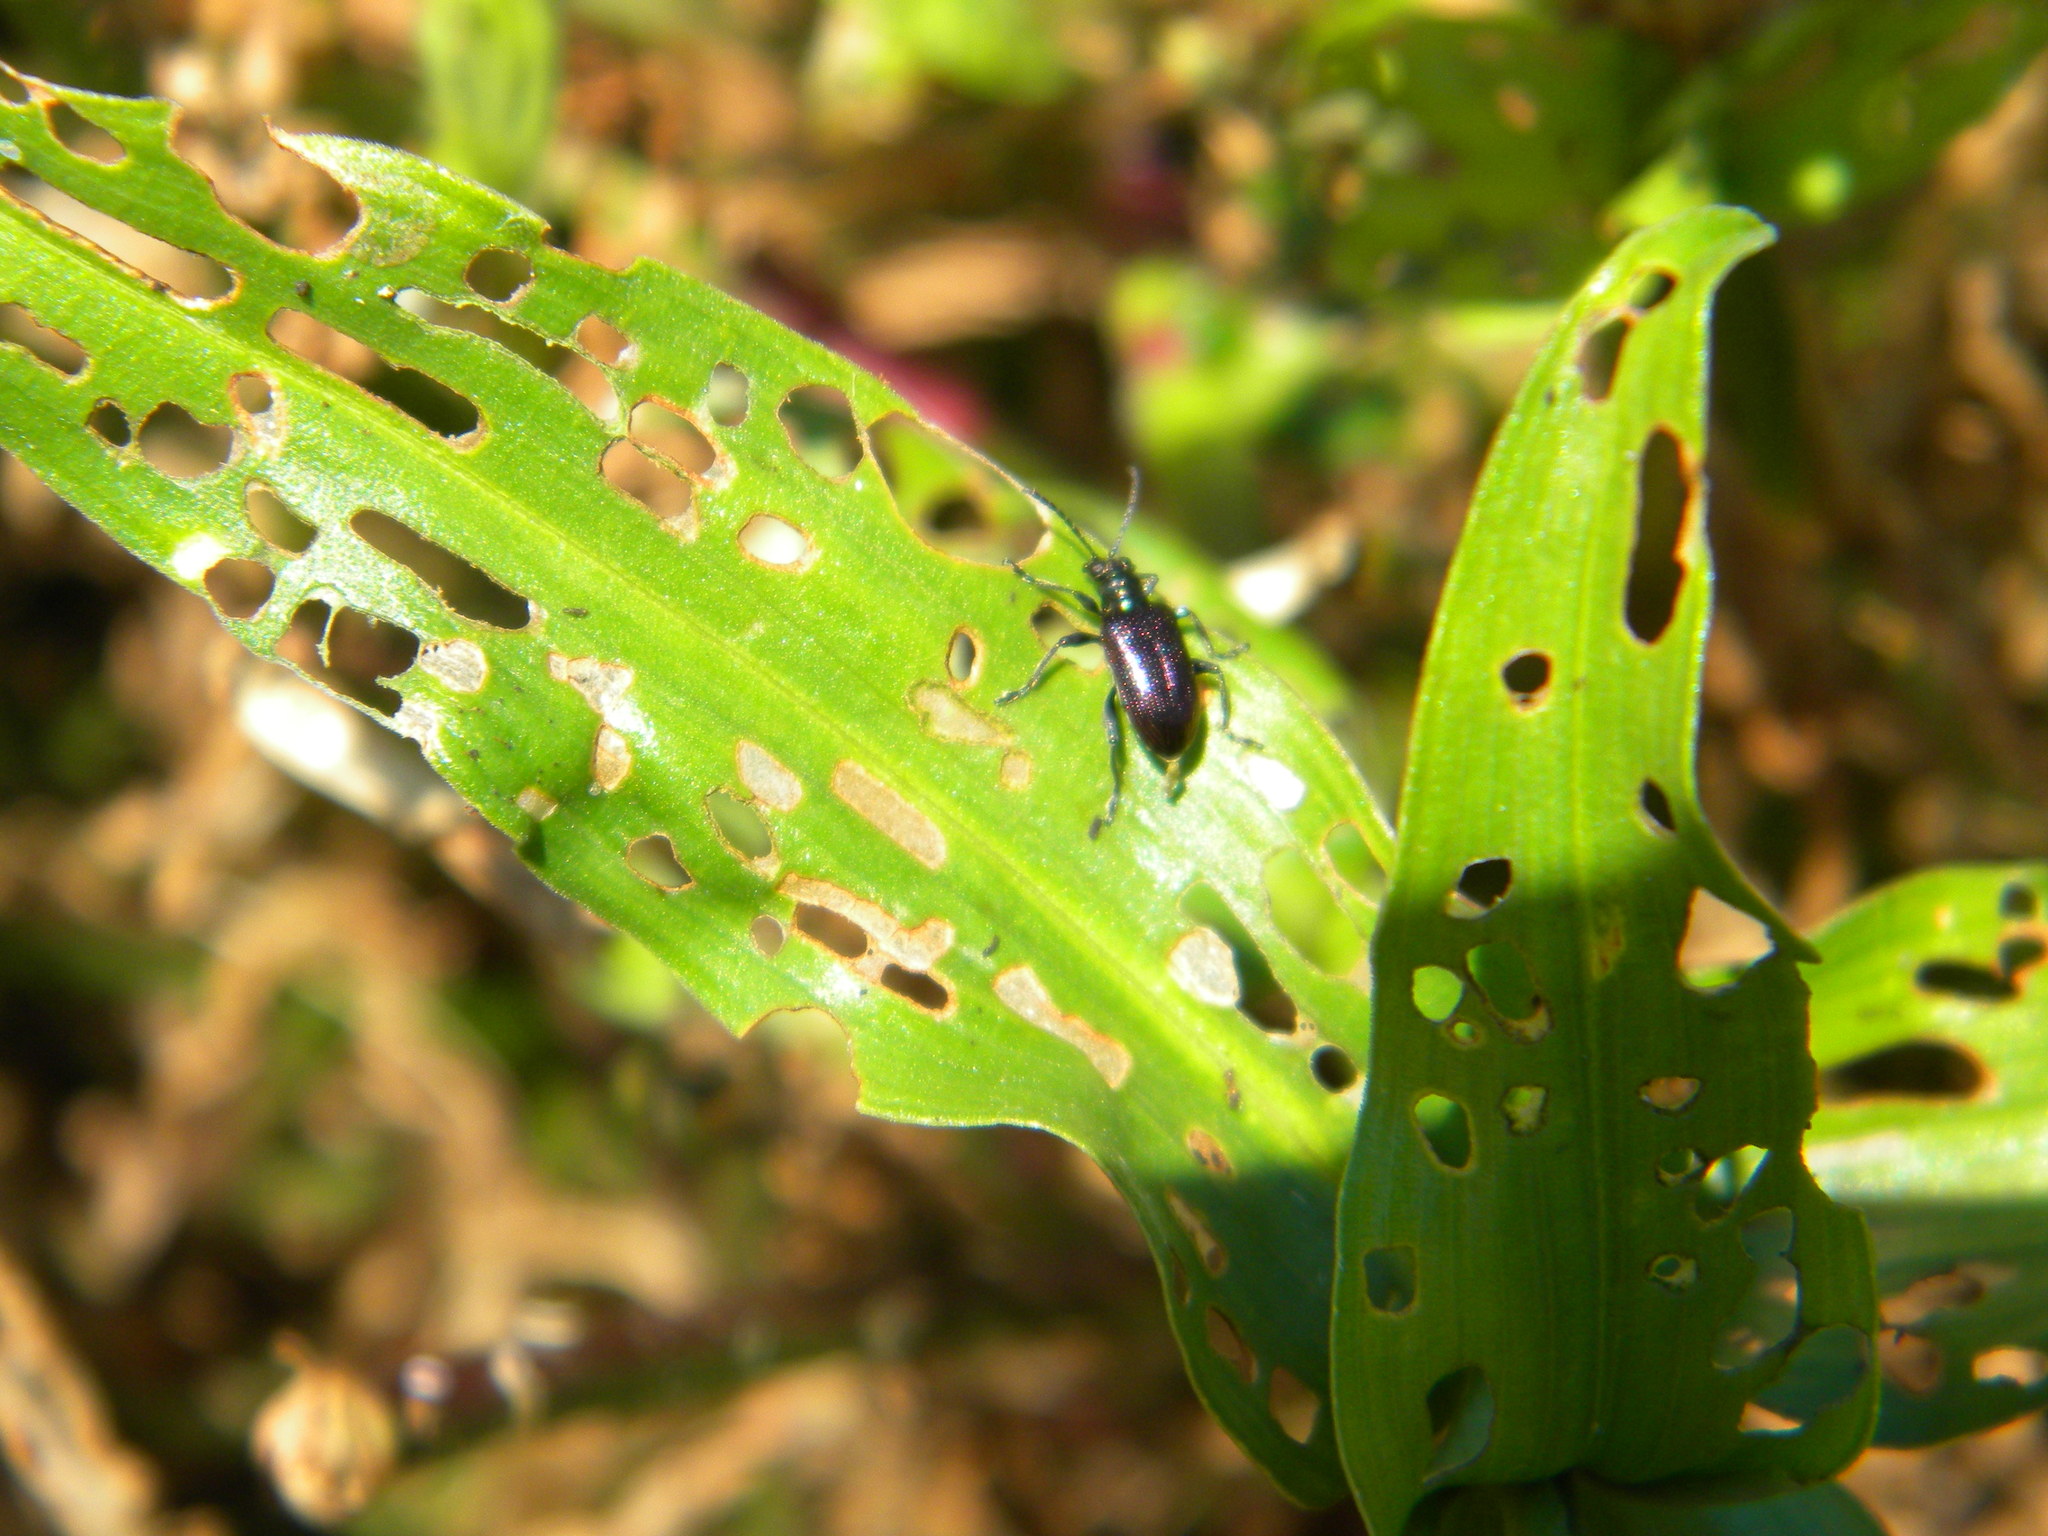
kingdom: Animalia
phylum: Arthropoda
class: Insecta
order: Coleoptera
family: Chrysomelidae
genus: Lema
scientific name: Lema
